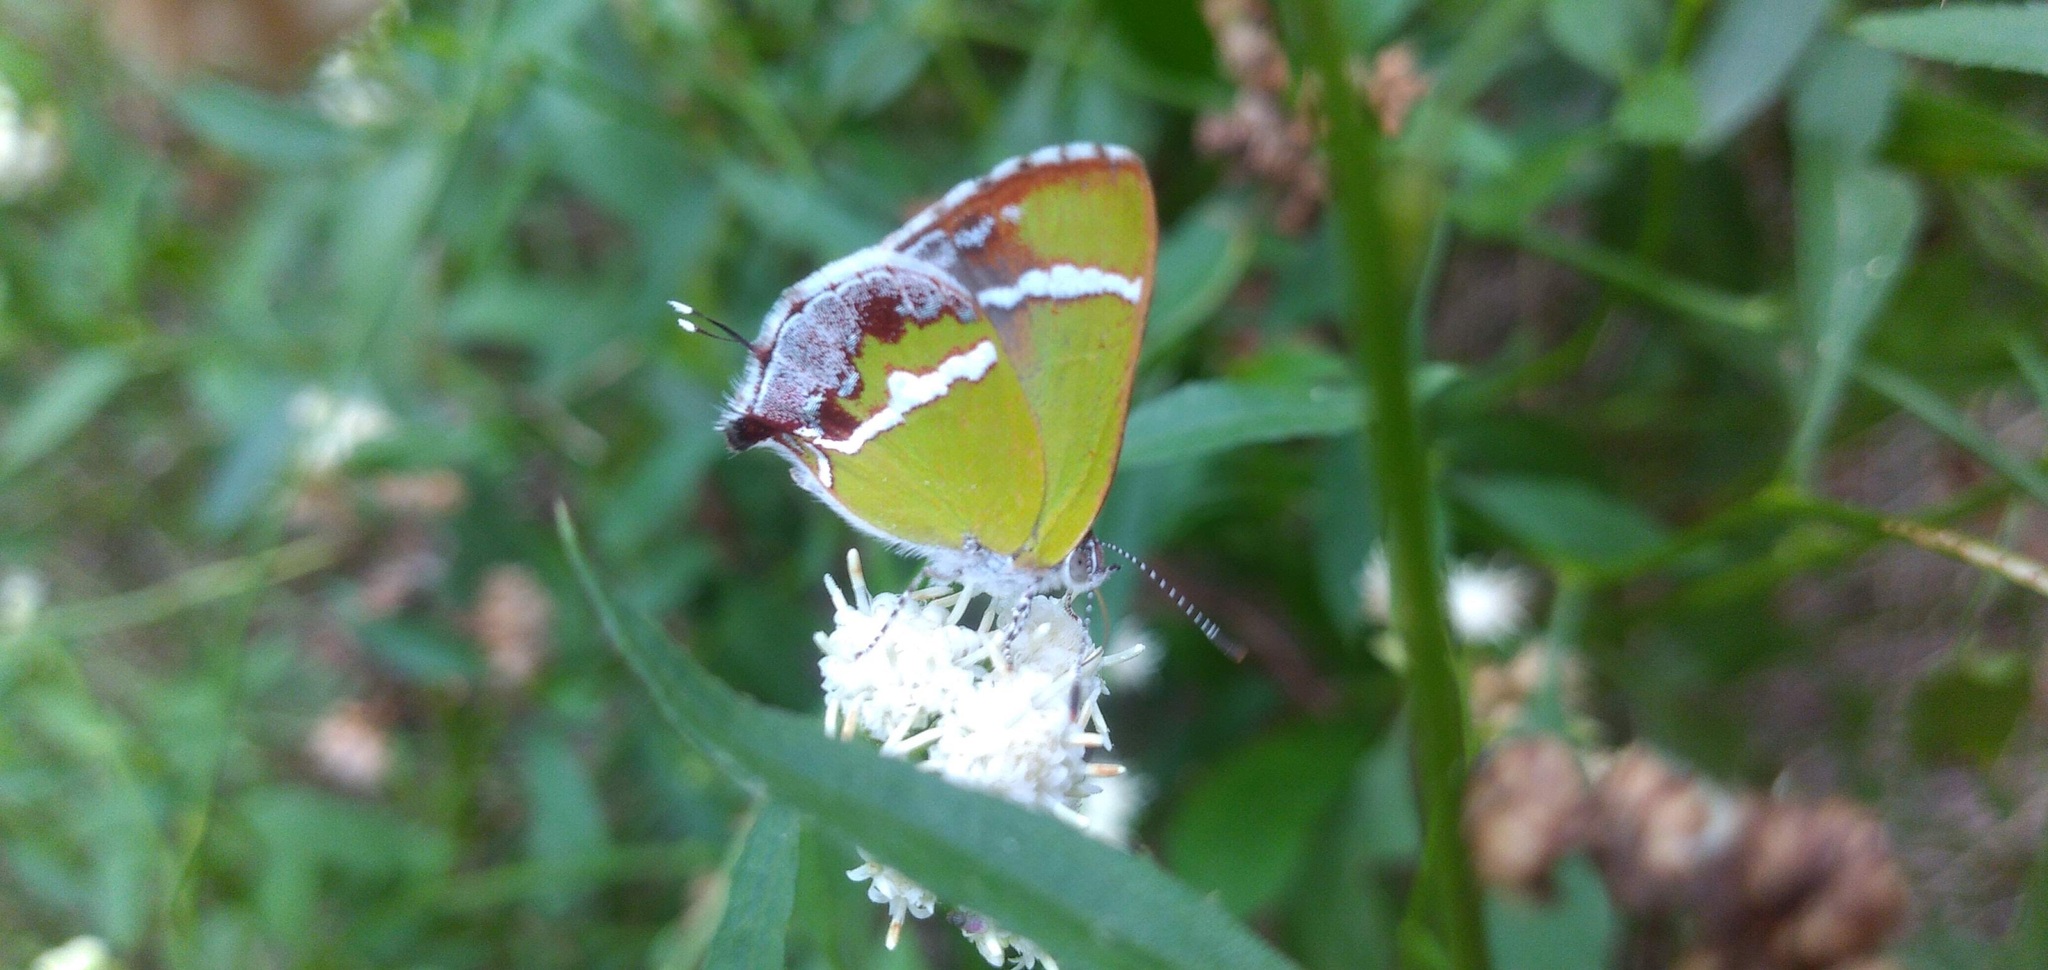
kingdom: Animalia
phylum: Arthropoda
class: Insecta
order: Lepidoptera
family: Lycaenidae
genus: Chlorostrymon
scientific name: Chlorostrymon simaethis
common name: Silver-banded hairstreak
